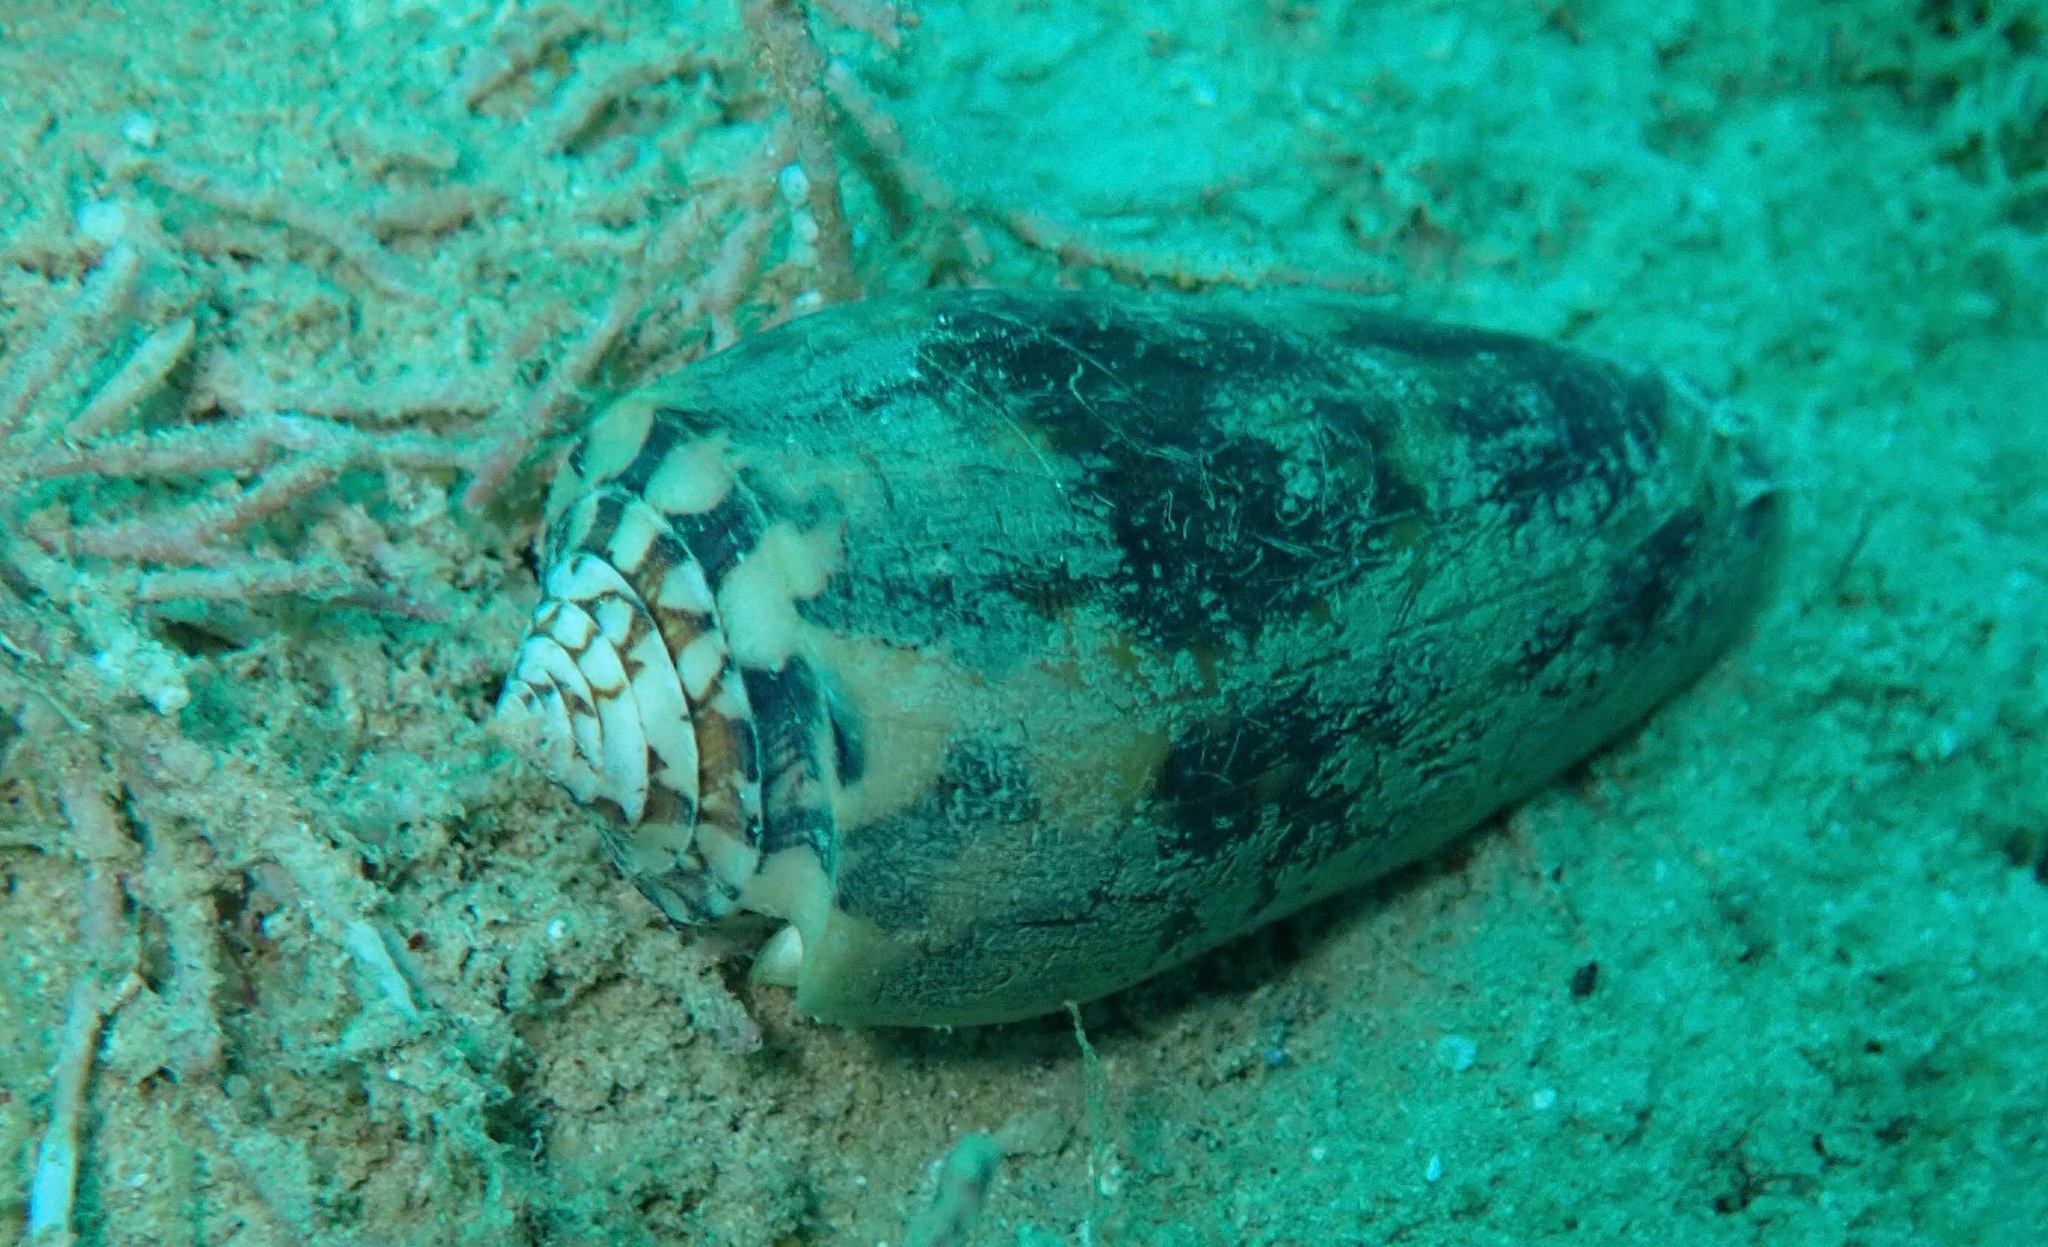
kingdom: Animalia
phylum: Mollusca
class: Gastropoda
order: Neogastropoda
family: Conidae
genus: Conus
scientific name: Conus striatus
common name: Striated cone
